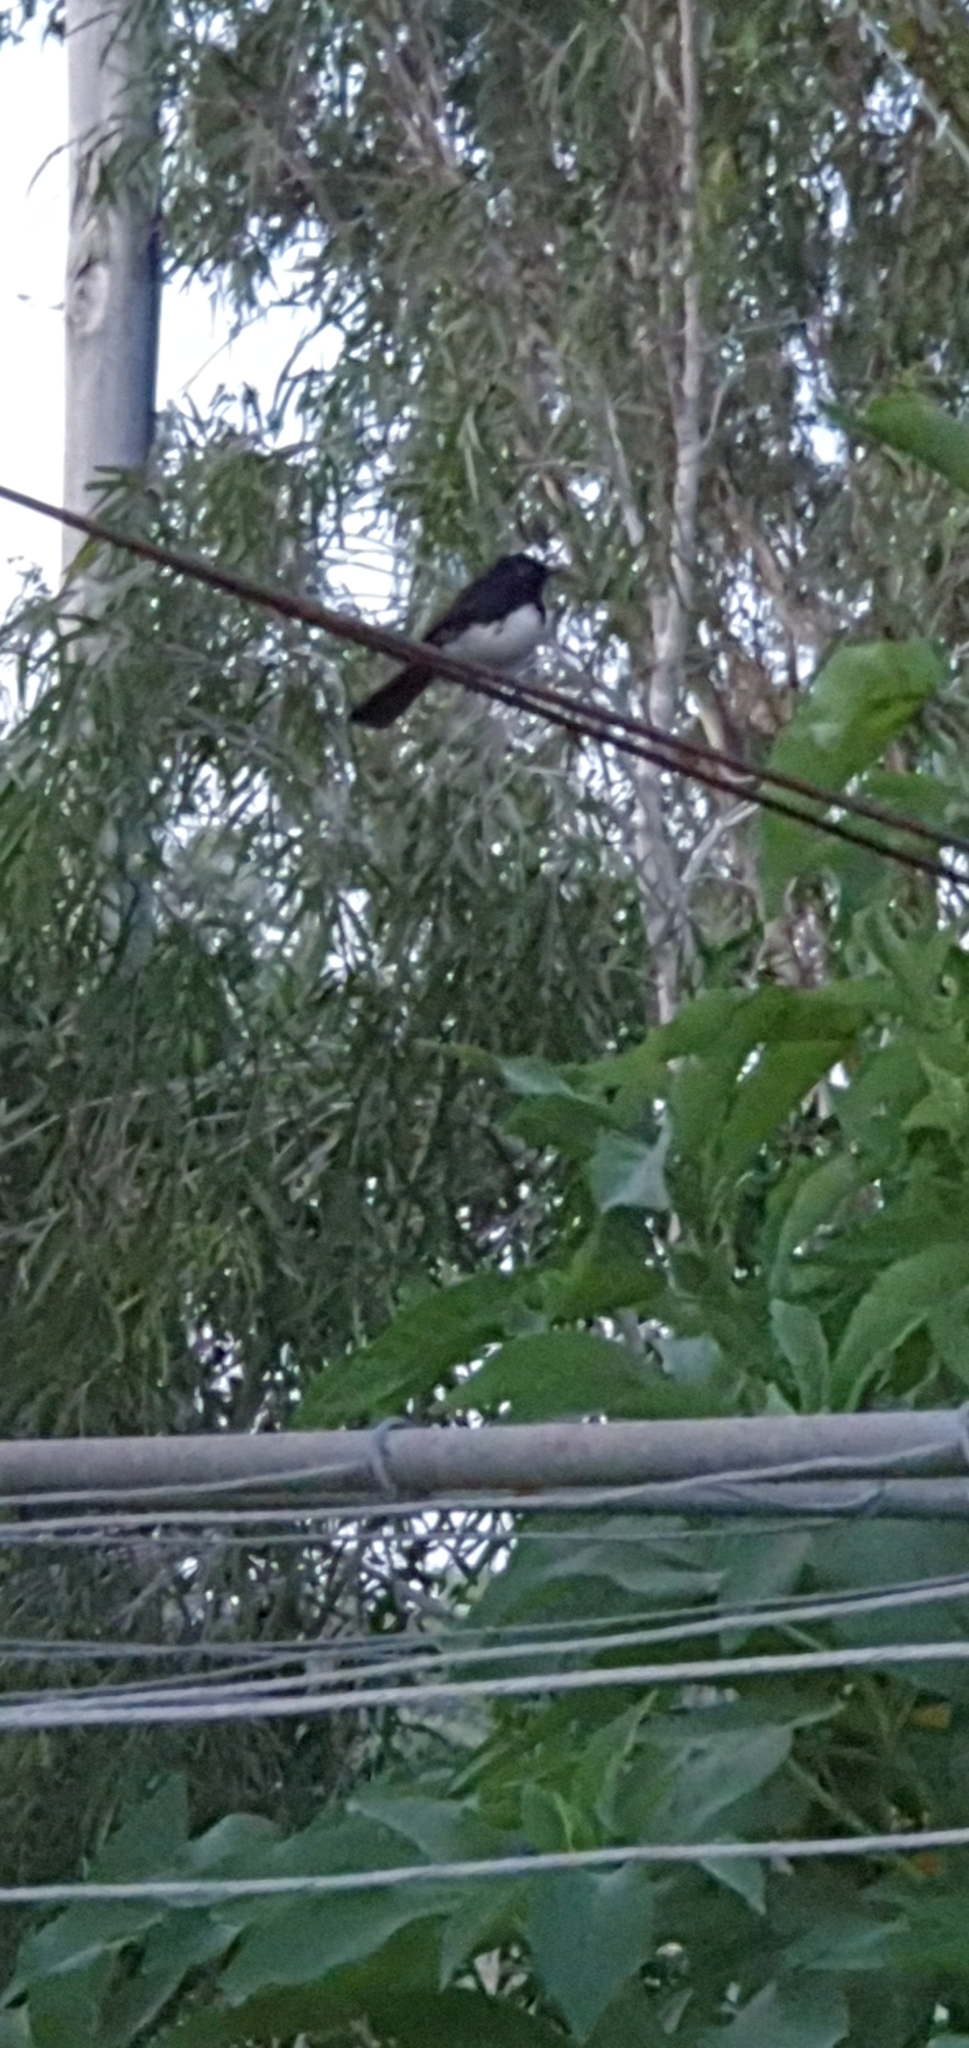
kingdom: Animalia
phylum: Chordata
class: Aves
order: Passeriformes
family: Rhipiduridae
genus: Rhipidura
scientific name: Rhipidura leucophrys
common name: Willie wagtail
